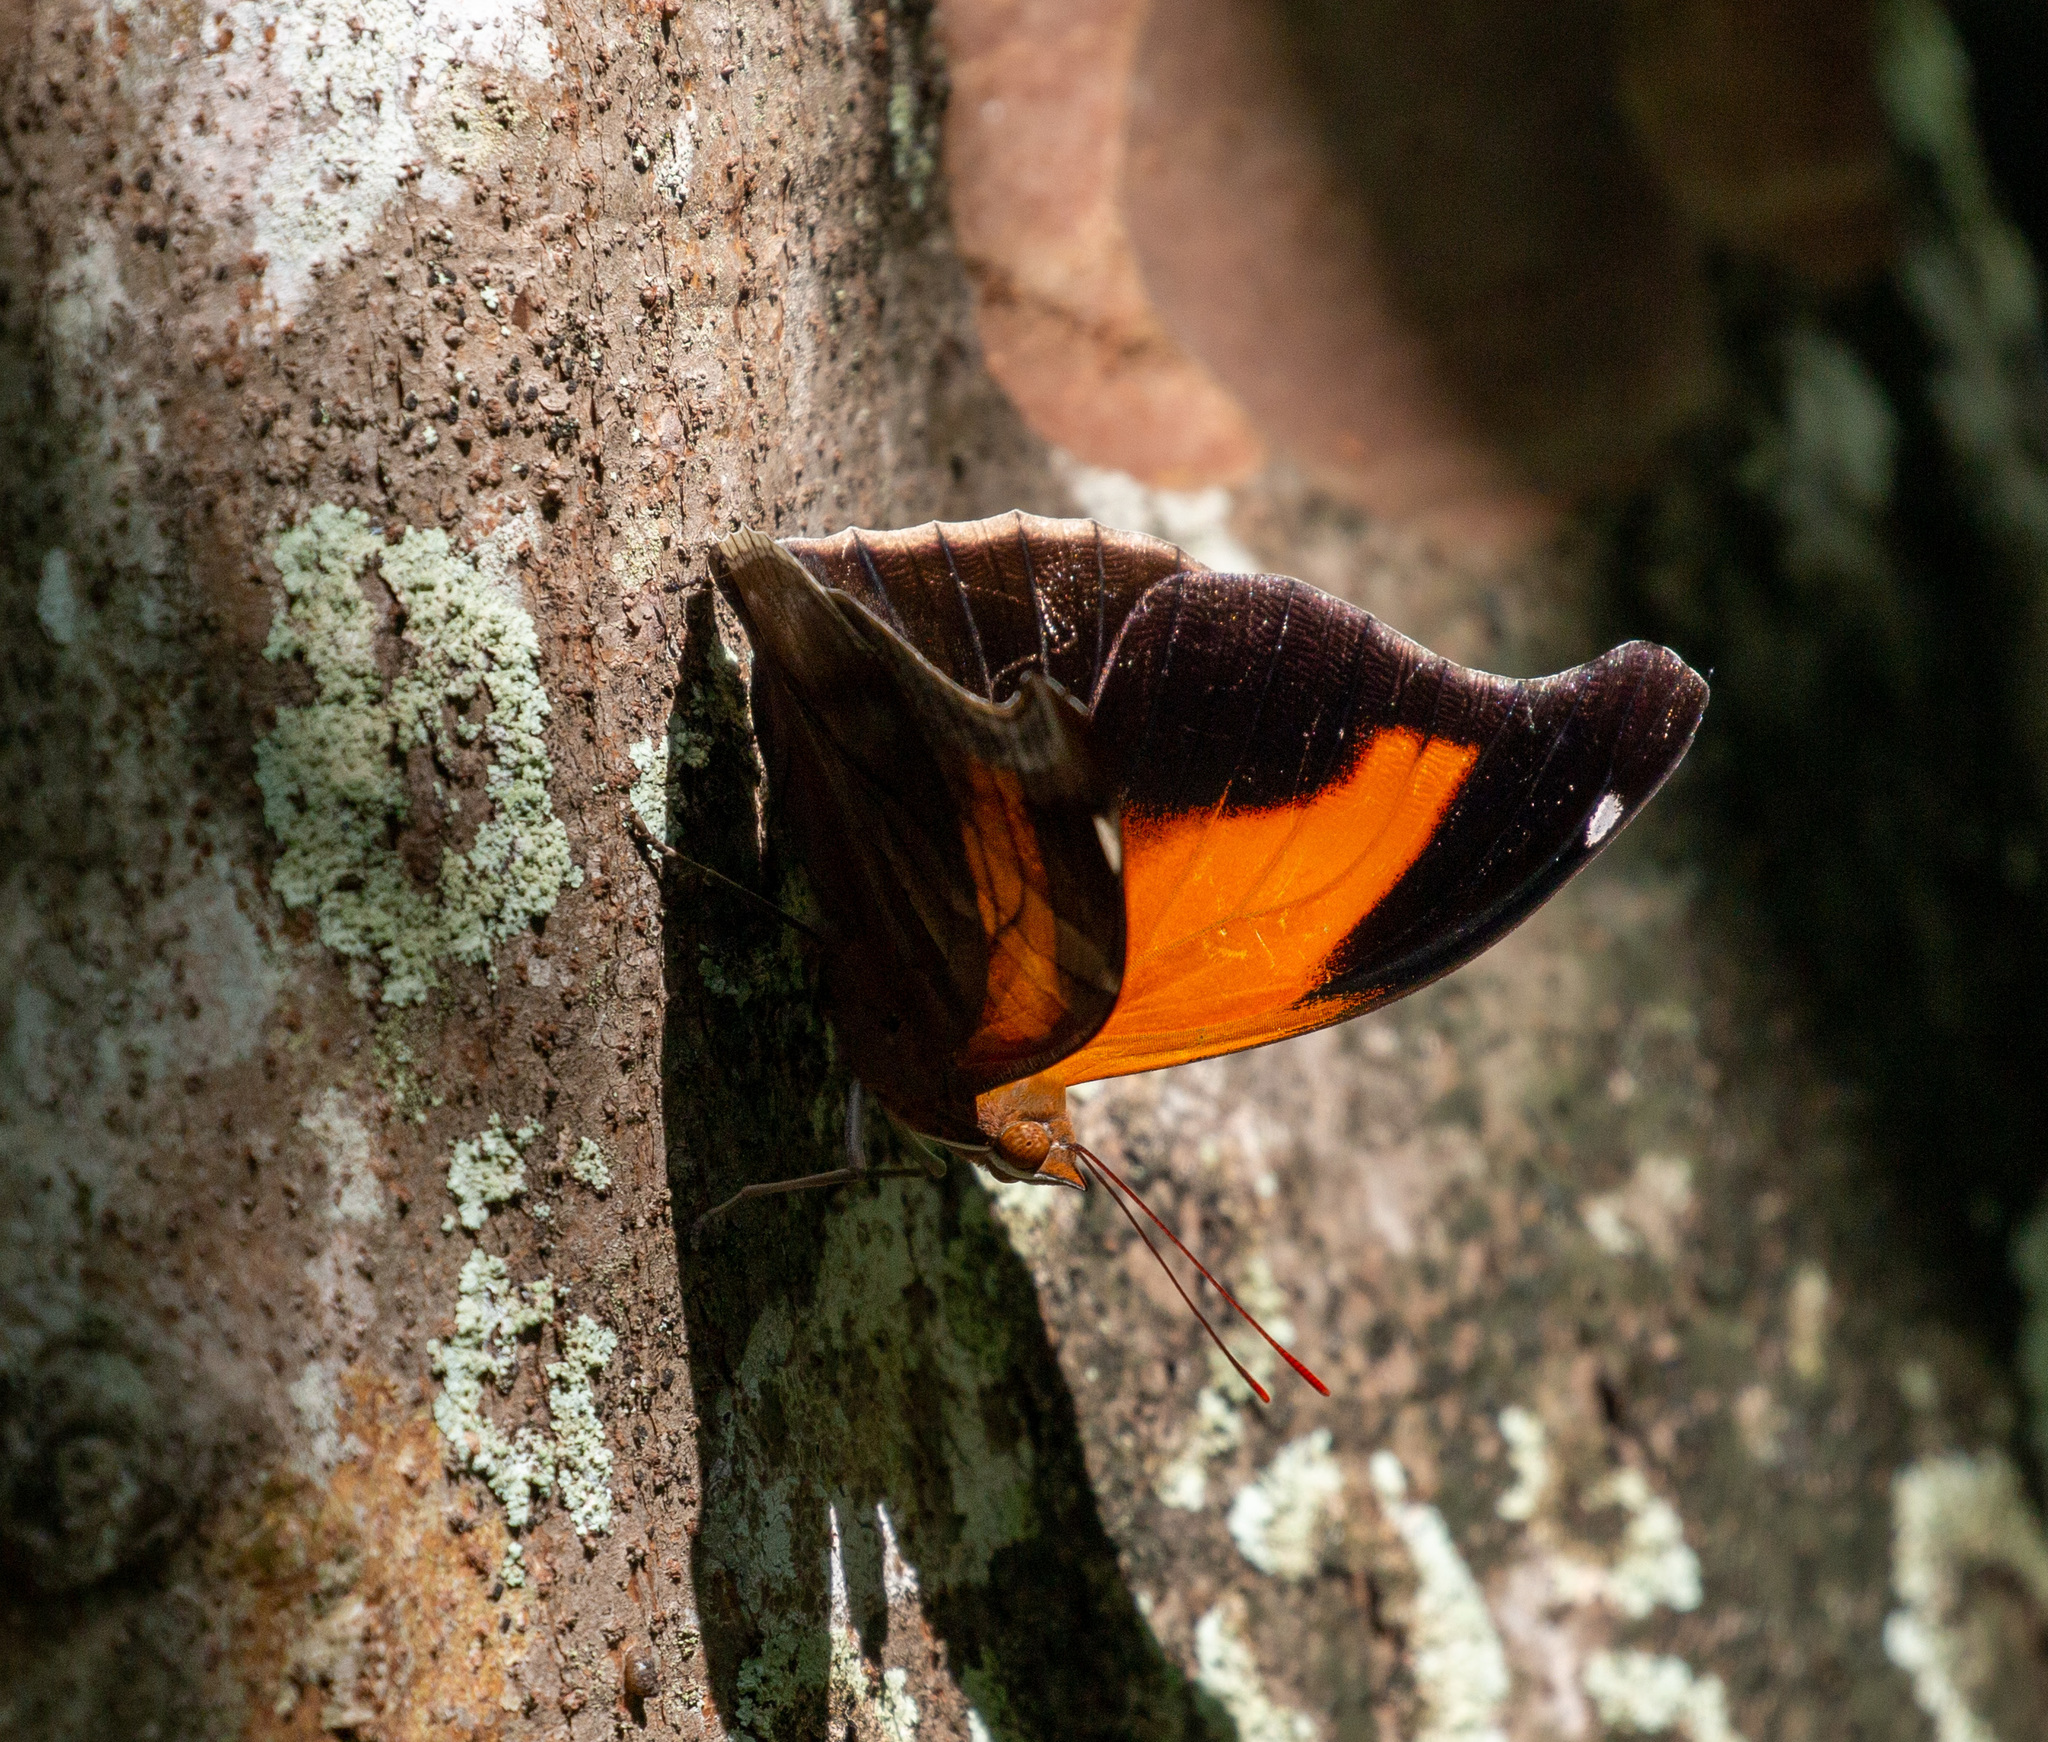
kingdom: Animalia
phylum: Arthropoda
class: Insecta
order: Lepidoptera
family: Nymphalidae
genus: Historis
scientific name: Historis odius
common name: Orion cecropian
